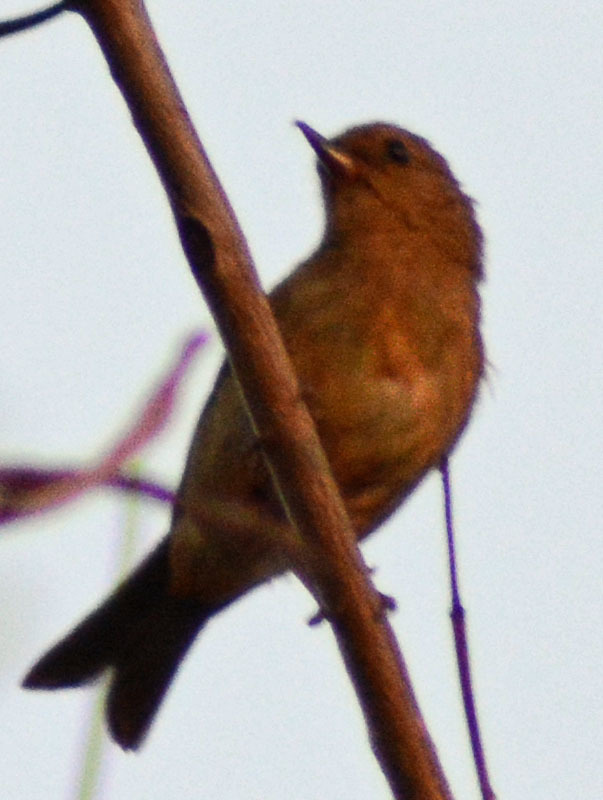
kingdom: Animalia
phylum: Chordata
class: Aves
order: Passeriformes
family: Thraupidae
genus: Diglossa
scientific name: Diglossa baritula
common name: Cinnamon-bellied flowerpiercer
